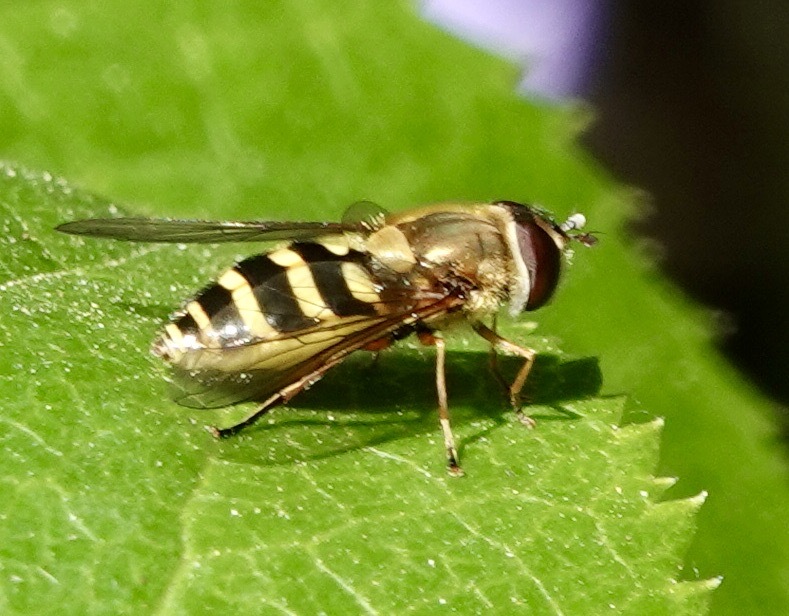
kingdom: Animalia
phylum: Arthropoda
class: Insecta
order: Diptera
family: Syrphidae
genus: Syrphus
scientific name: Syrphus ribesii
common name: Common flower fly
